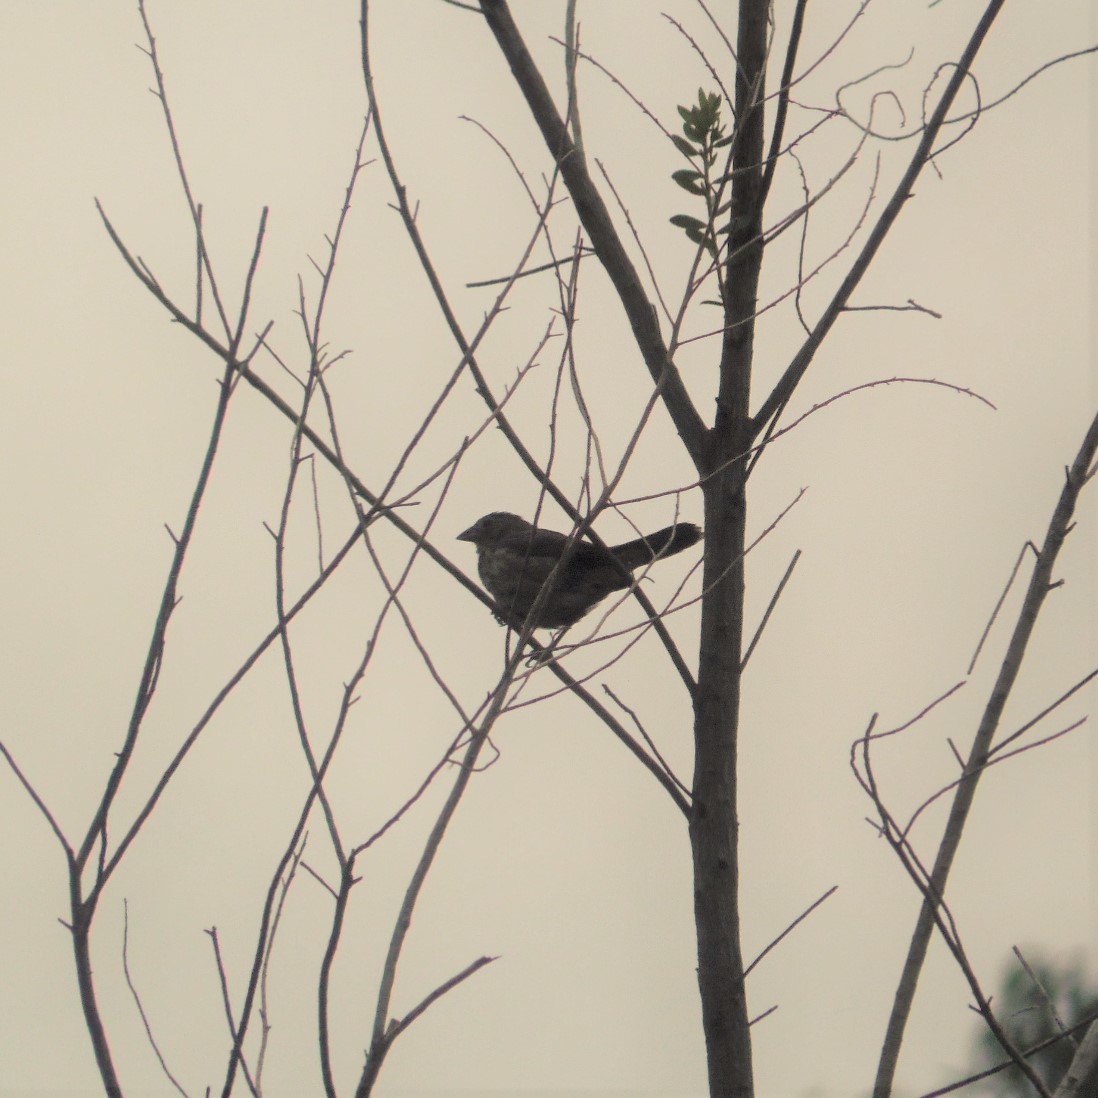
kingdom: Animalia
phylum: Chordata
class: Aves
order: Passeriformes
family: Thraupidae
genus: Volatinia
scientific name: Volatinia jacarina
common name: Blue-black grassquit
